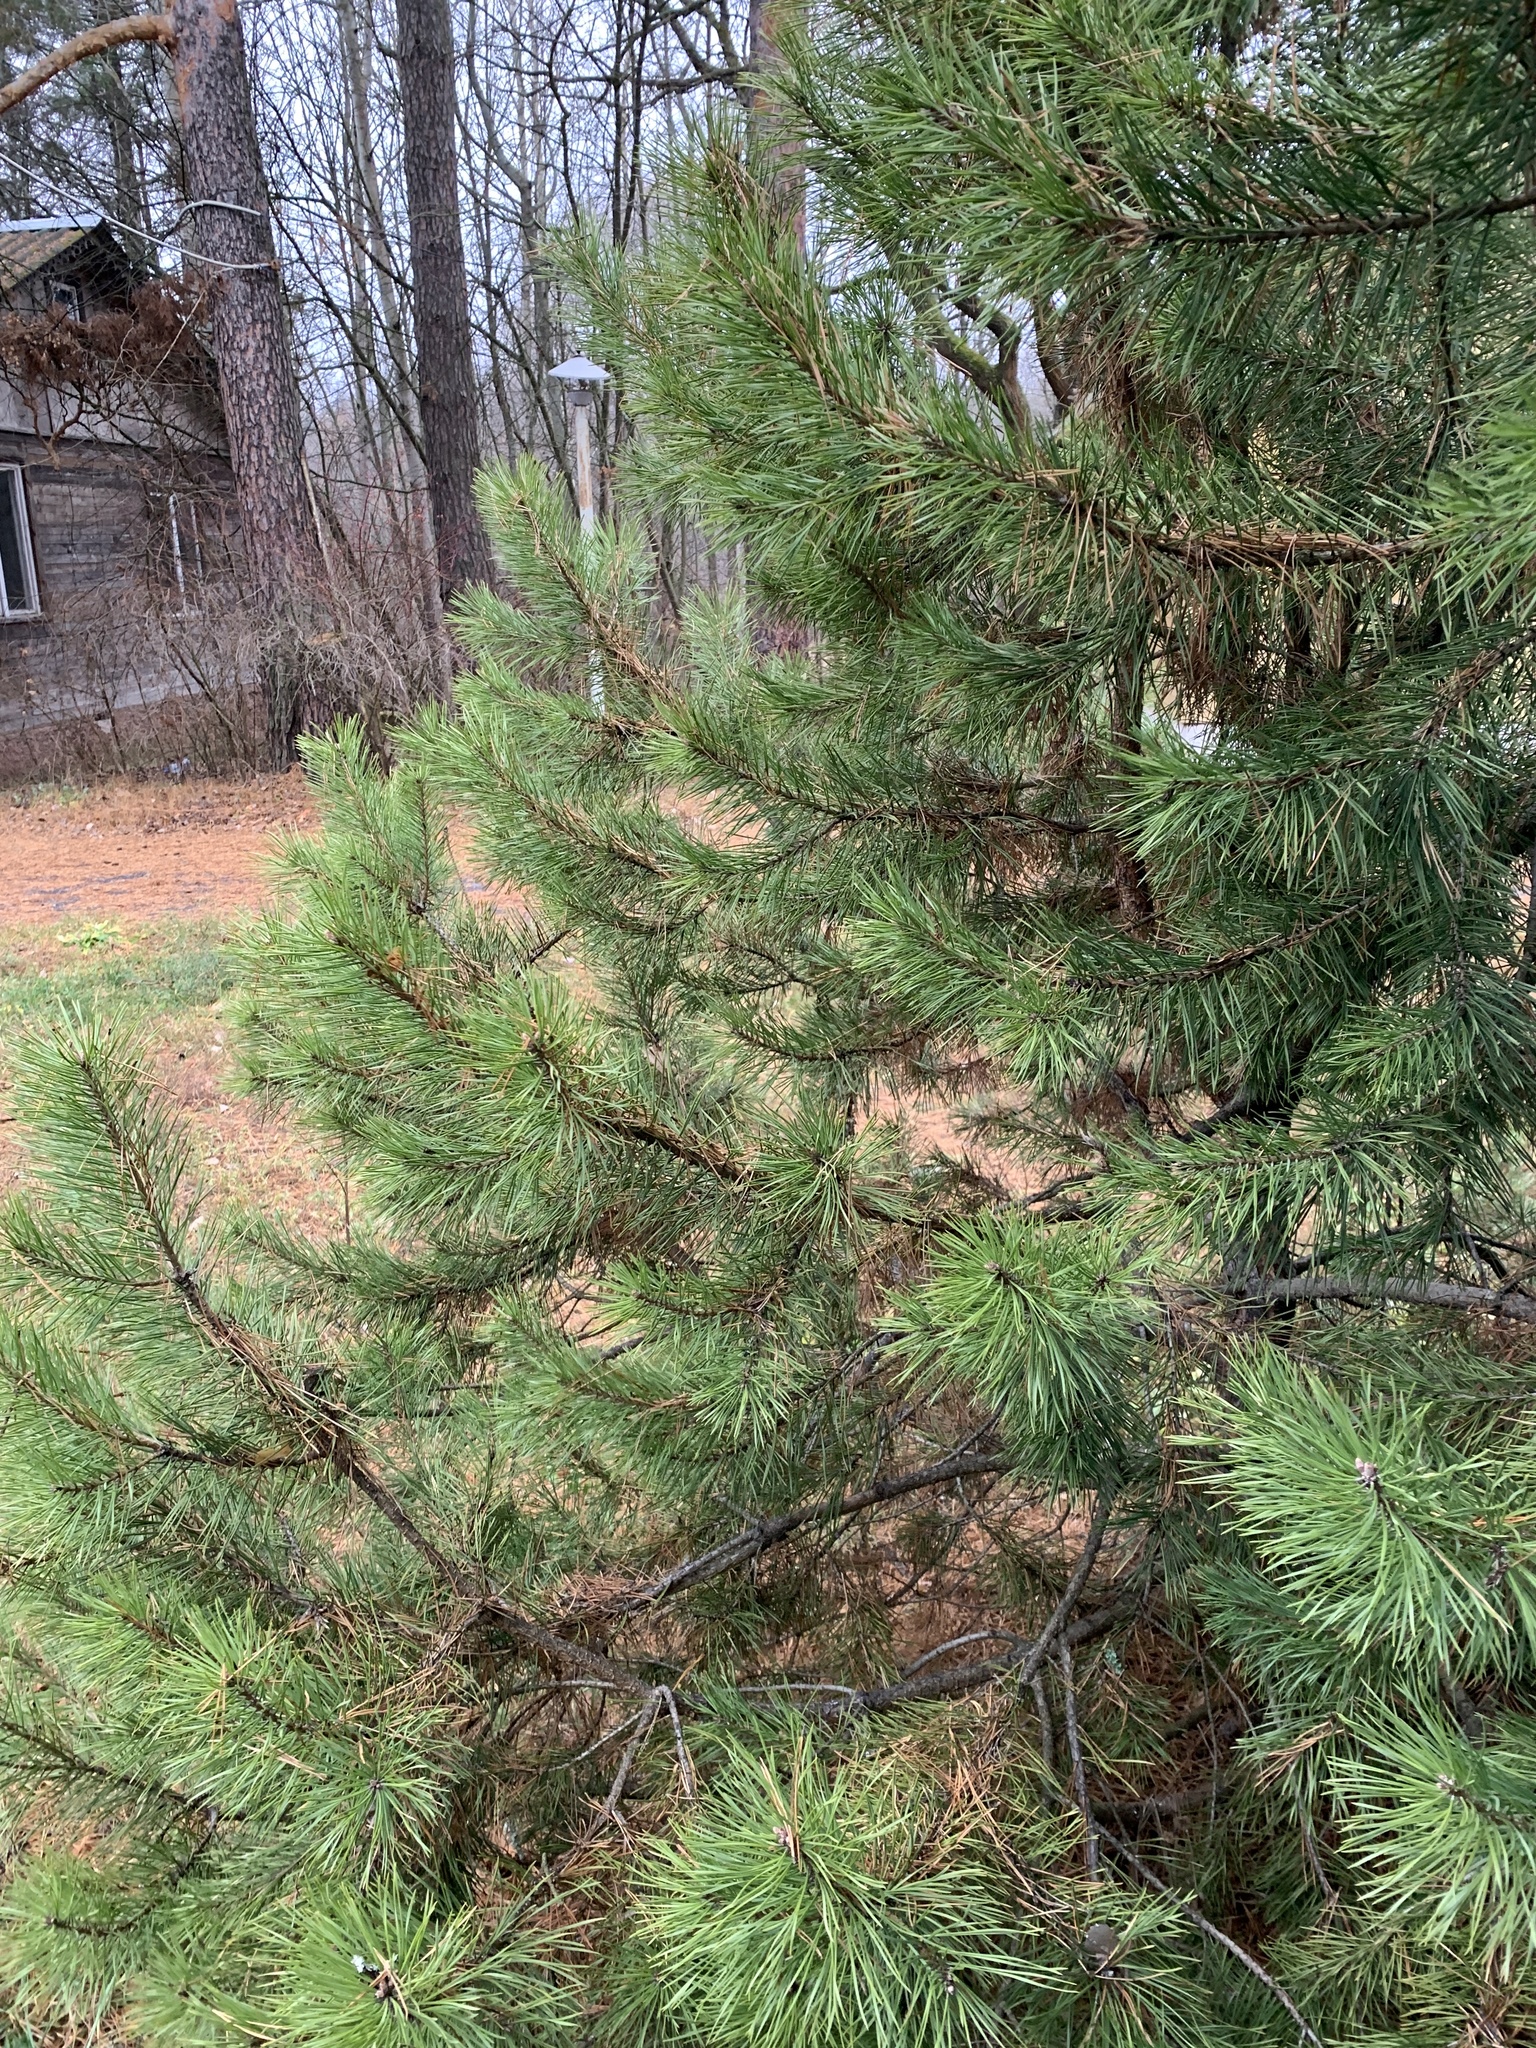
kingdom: Plantae
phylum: Tracheophyta
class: Pinopsida
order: Pinales
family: Pinaceae
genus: Pinus
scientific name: Pinus sylvestris
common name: Scots pine
